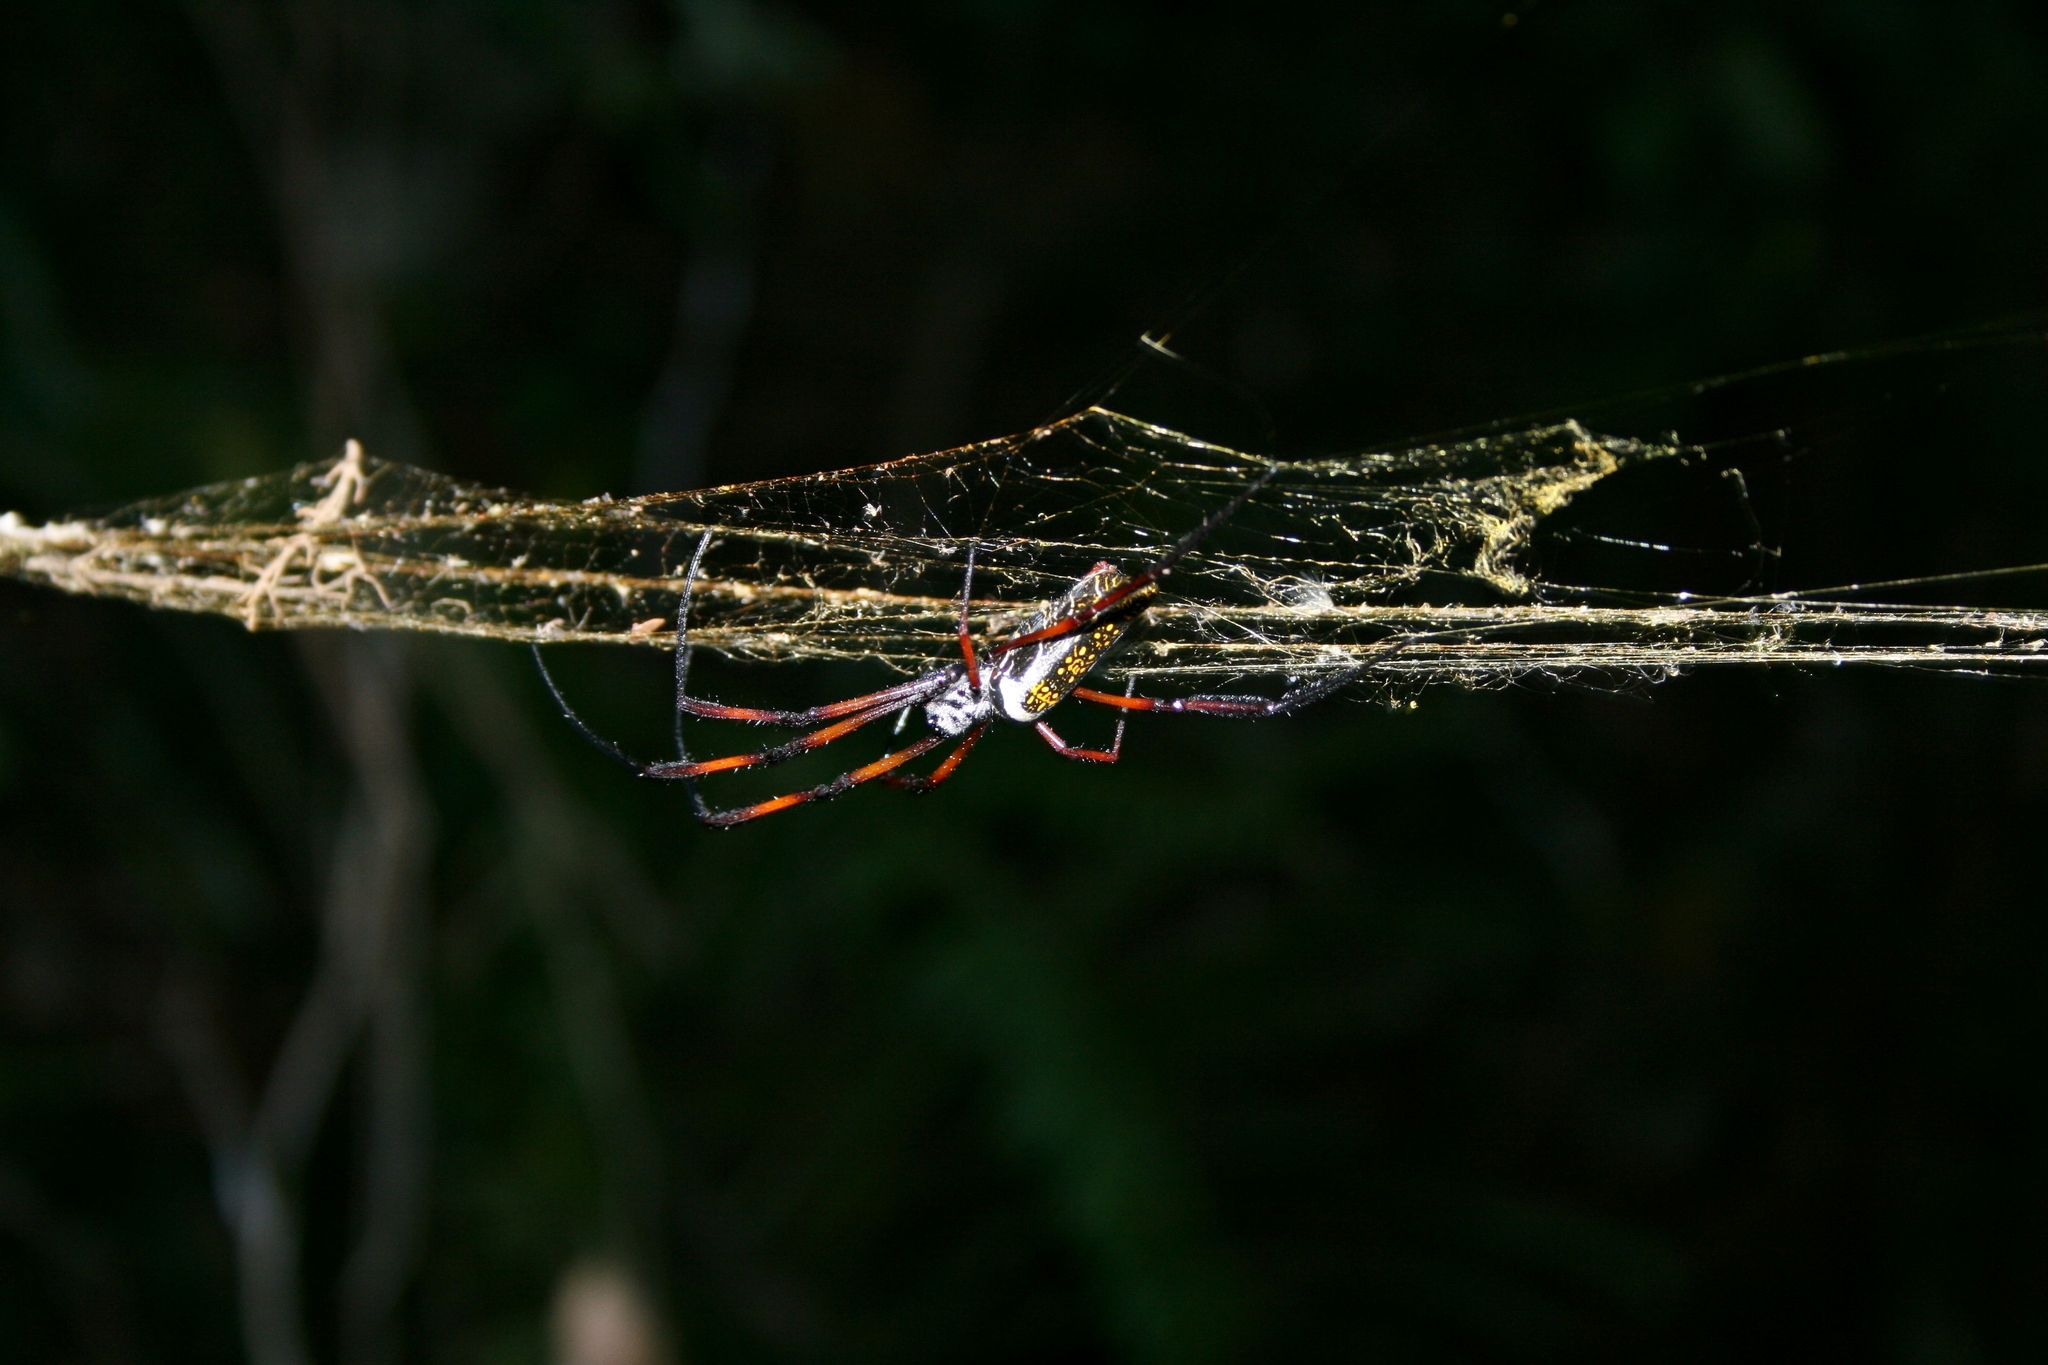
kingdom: Animalia
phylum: Arthropoda
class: Arachnida
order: Araneae
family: Araneidae
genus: Trichonephila
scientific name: Trichonephila inaurata
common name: Red-legged golden orb weaver
